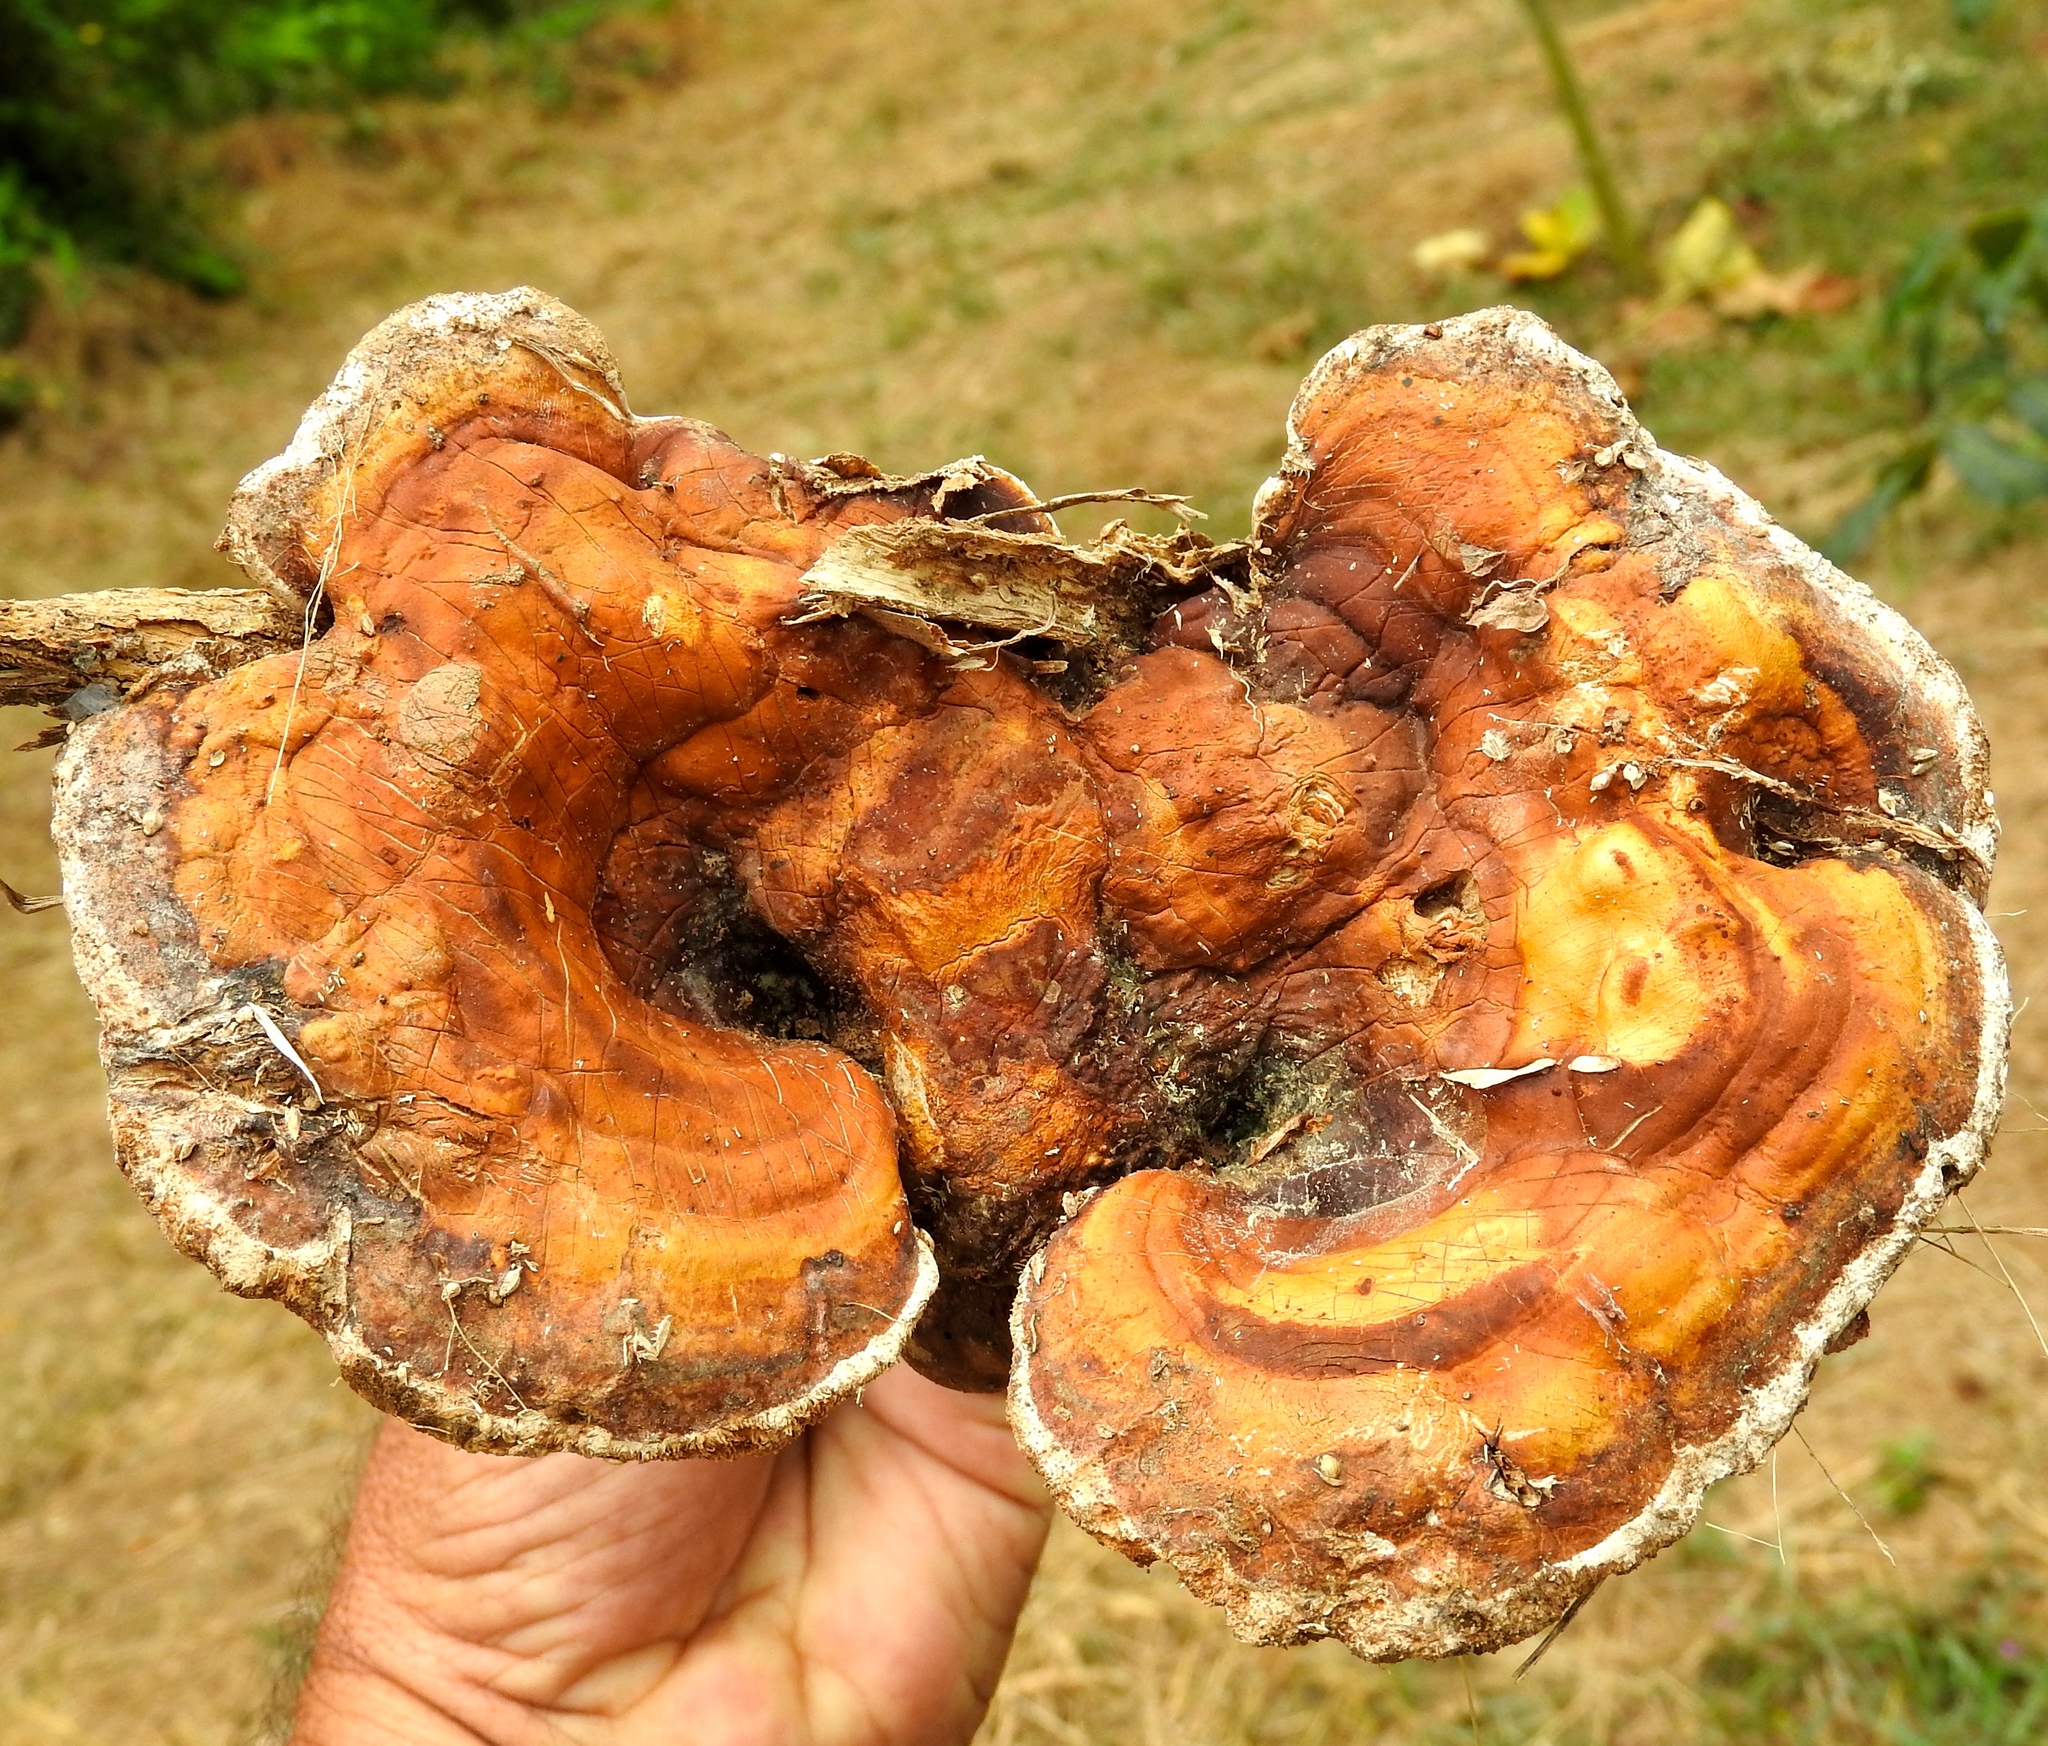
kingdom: Fungi
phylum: Basidiomycota
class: Agaricomycetes
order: Polyporales
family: Polyporaceae
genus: Ganoderma
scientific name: Ganoderma
